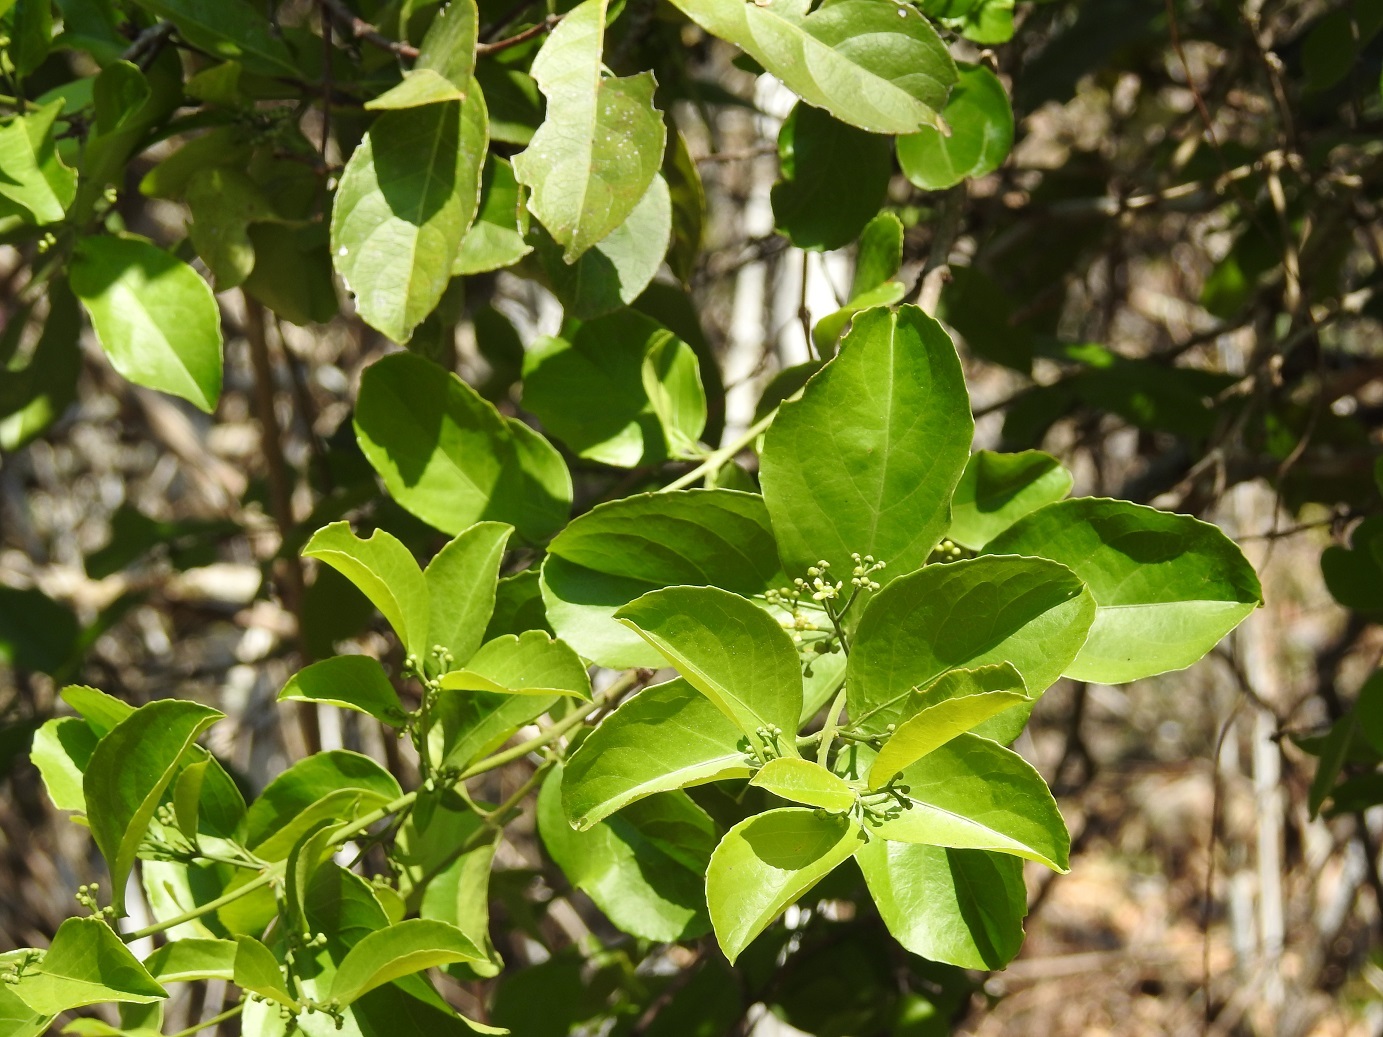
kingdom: Plantae
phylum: Tracheophyta
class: Magnoliopsida
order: Celastrales
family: Celastraceae
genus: Semialarium
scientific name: Semialarium mexicanum
